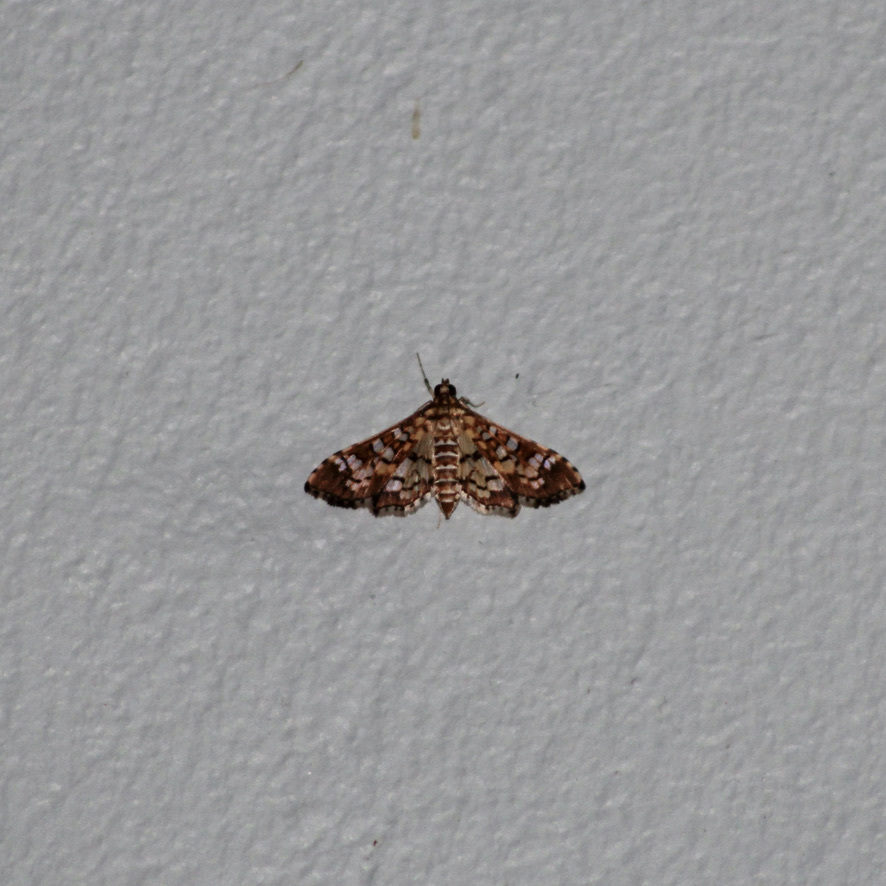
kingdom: Animalia
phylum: Arthropoda
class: Insecta
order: Lepidoptera
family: Crambidae
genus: Samea
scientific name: Samea ecclesialis
